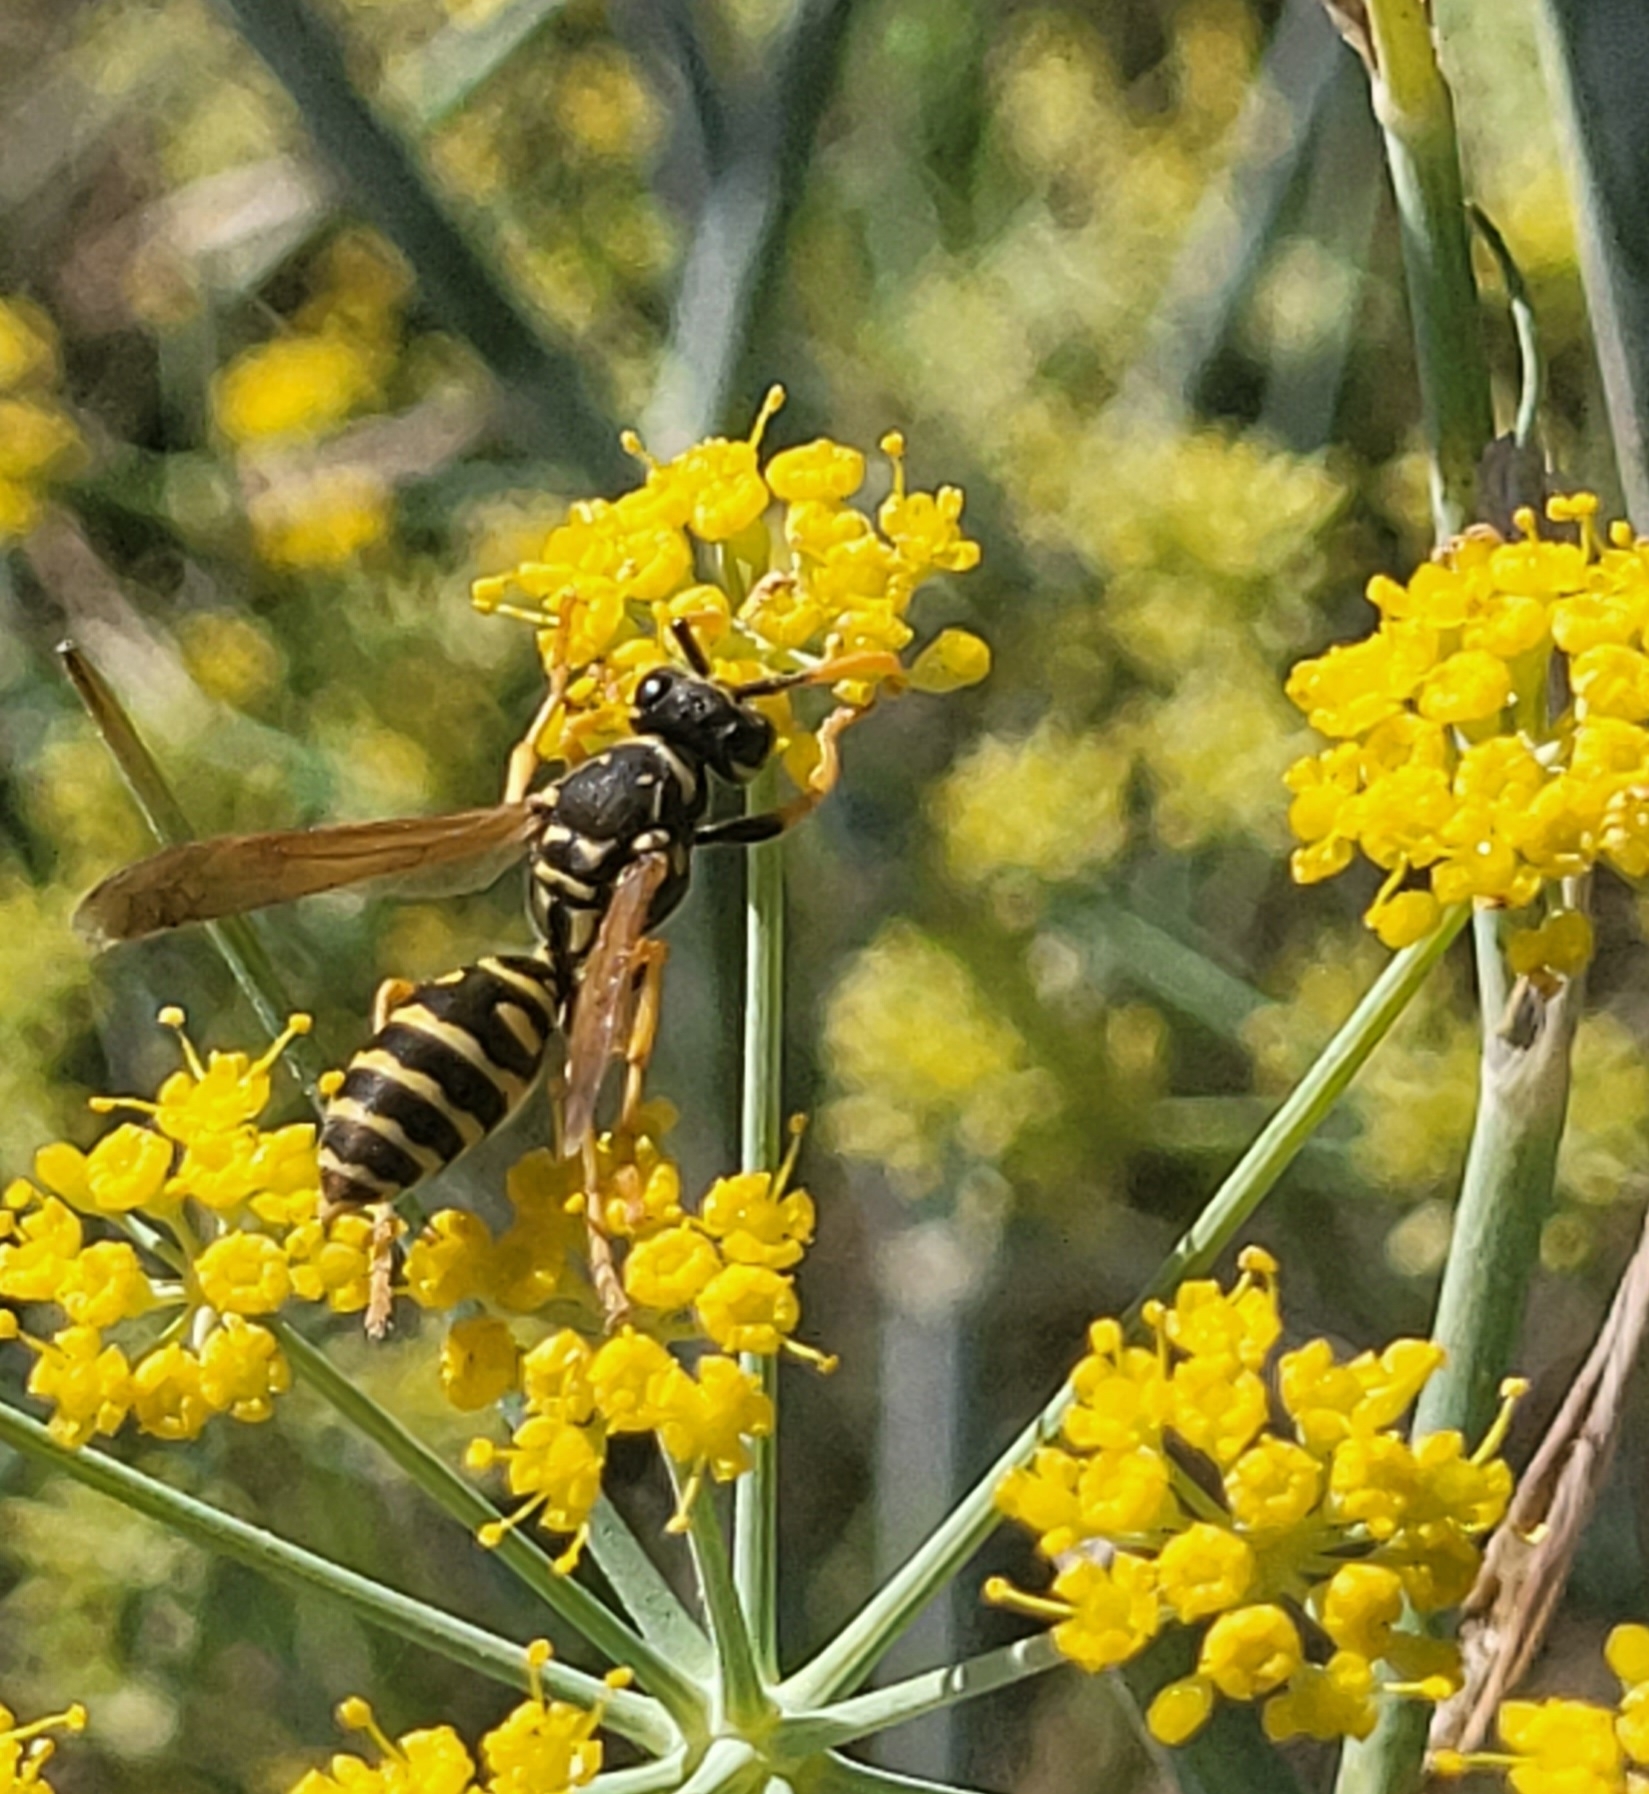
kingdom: Animalia
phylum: Arthropoda
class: Insecta
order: Hymenoptera
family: Eumenidae
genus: Polistes
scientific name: Polistes dominula
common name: Paper wasp
